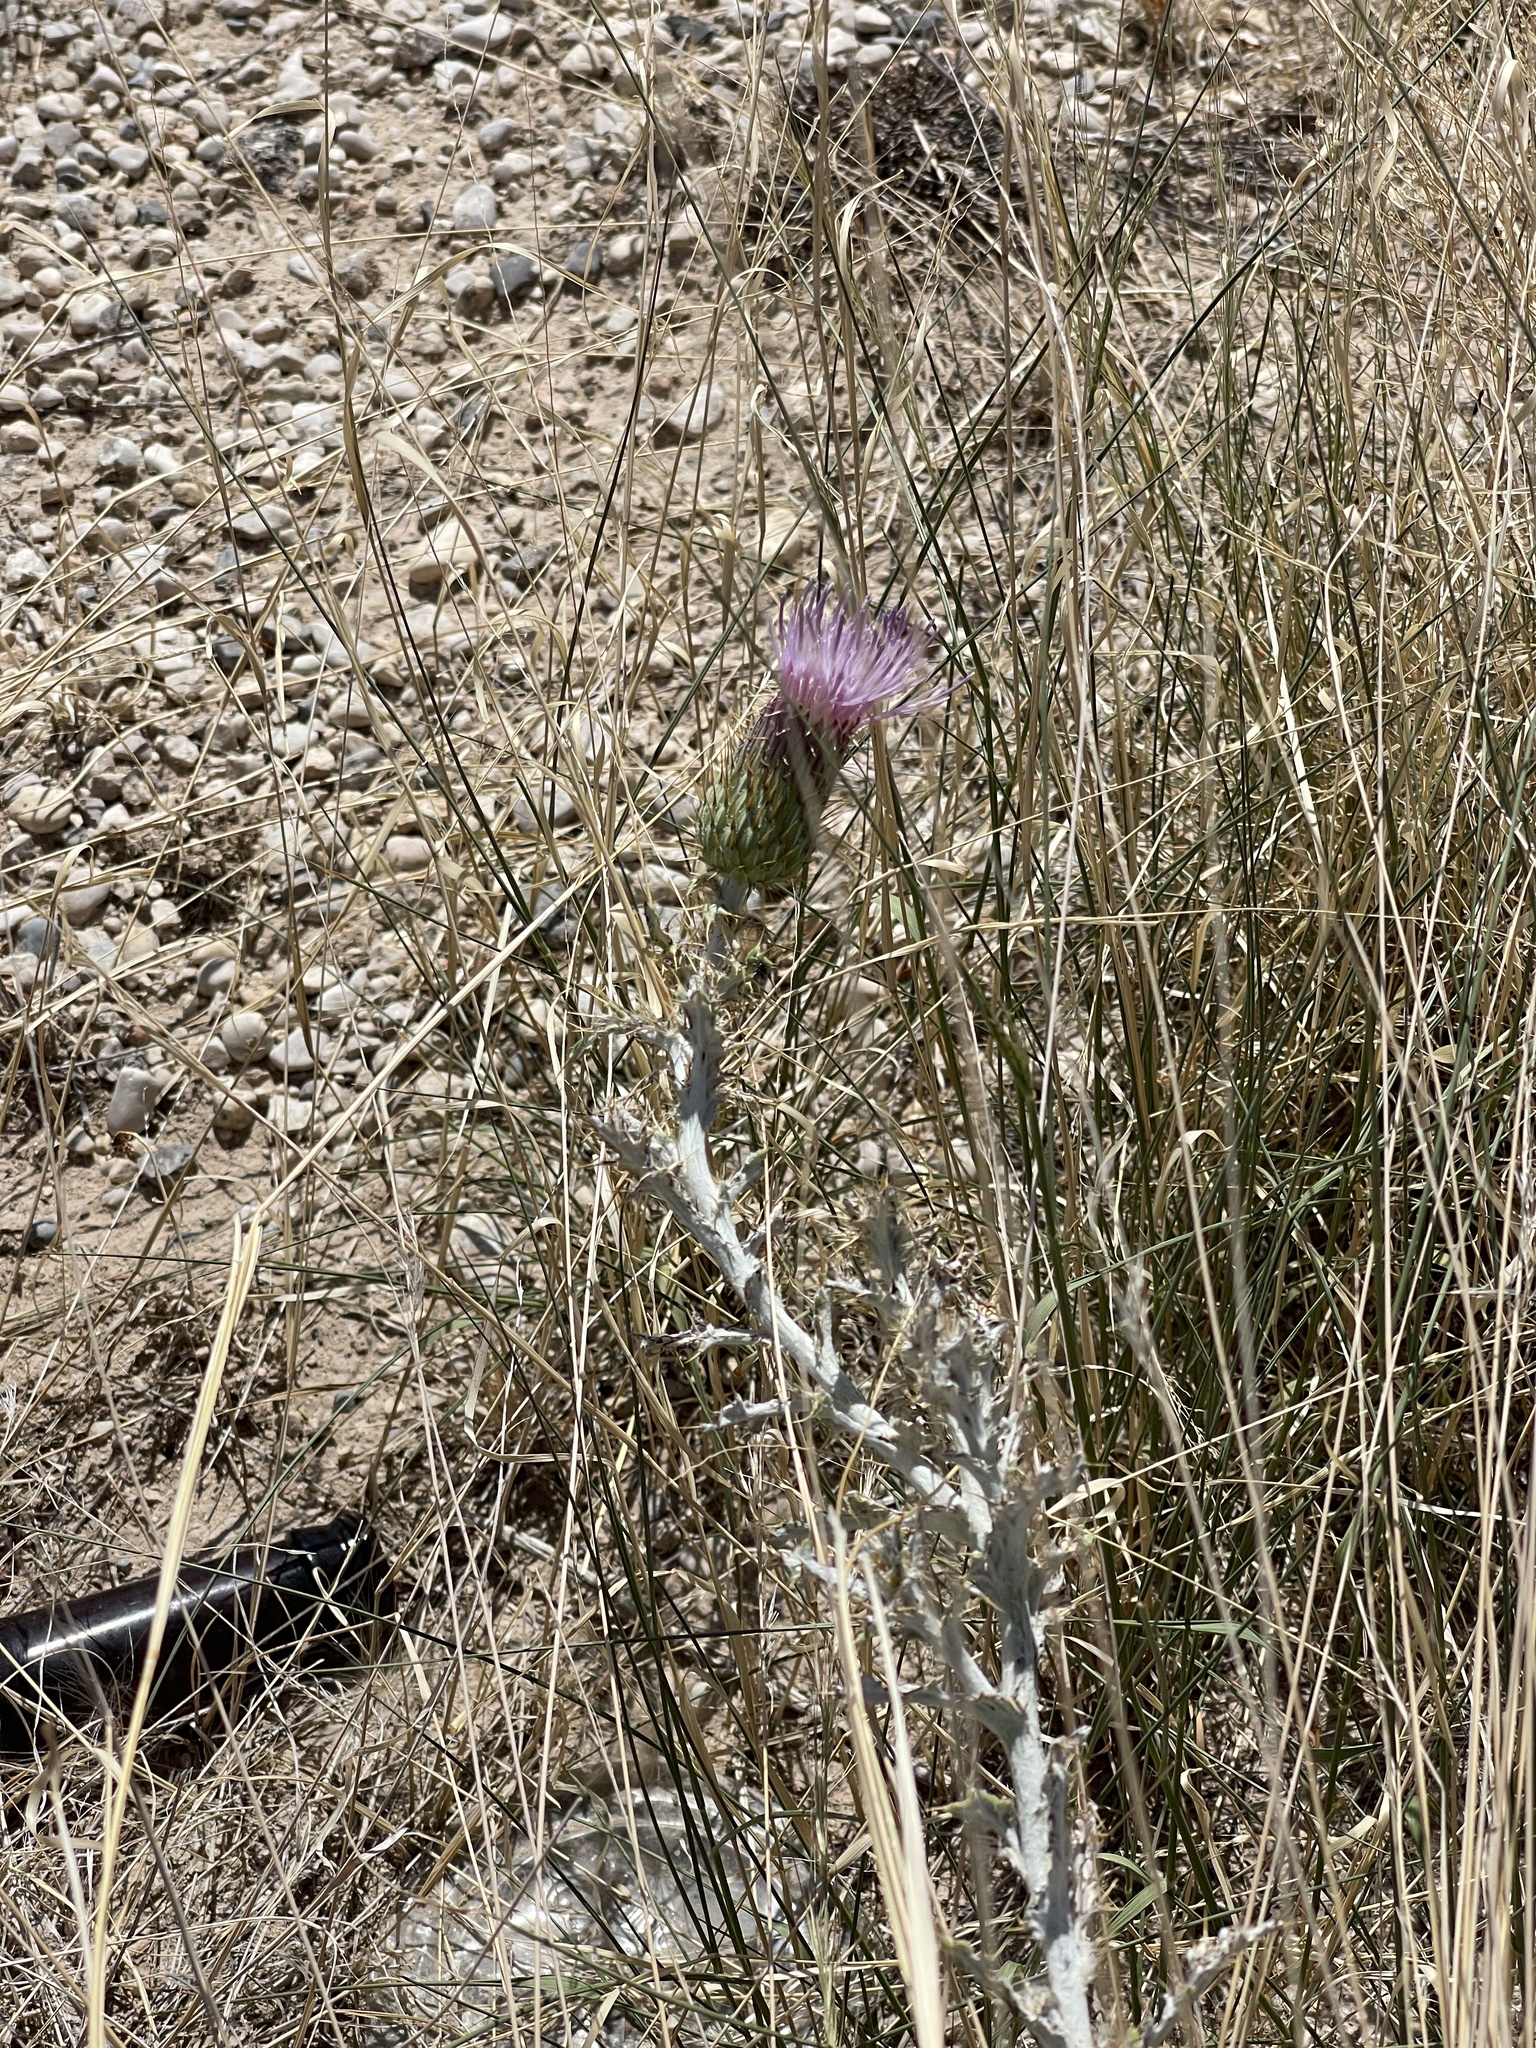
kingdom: Plantae
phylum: Tracheophyta
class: Magnoliopsida
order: Asterales
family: Asteraceae
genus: Cirsium
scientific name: Cirsium ochrocentrum
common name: Yellow-spine thistle
